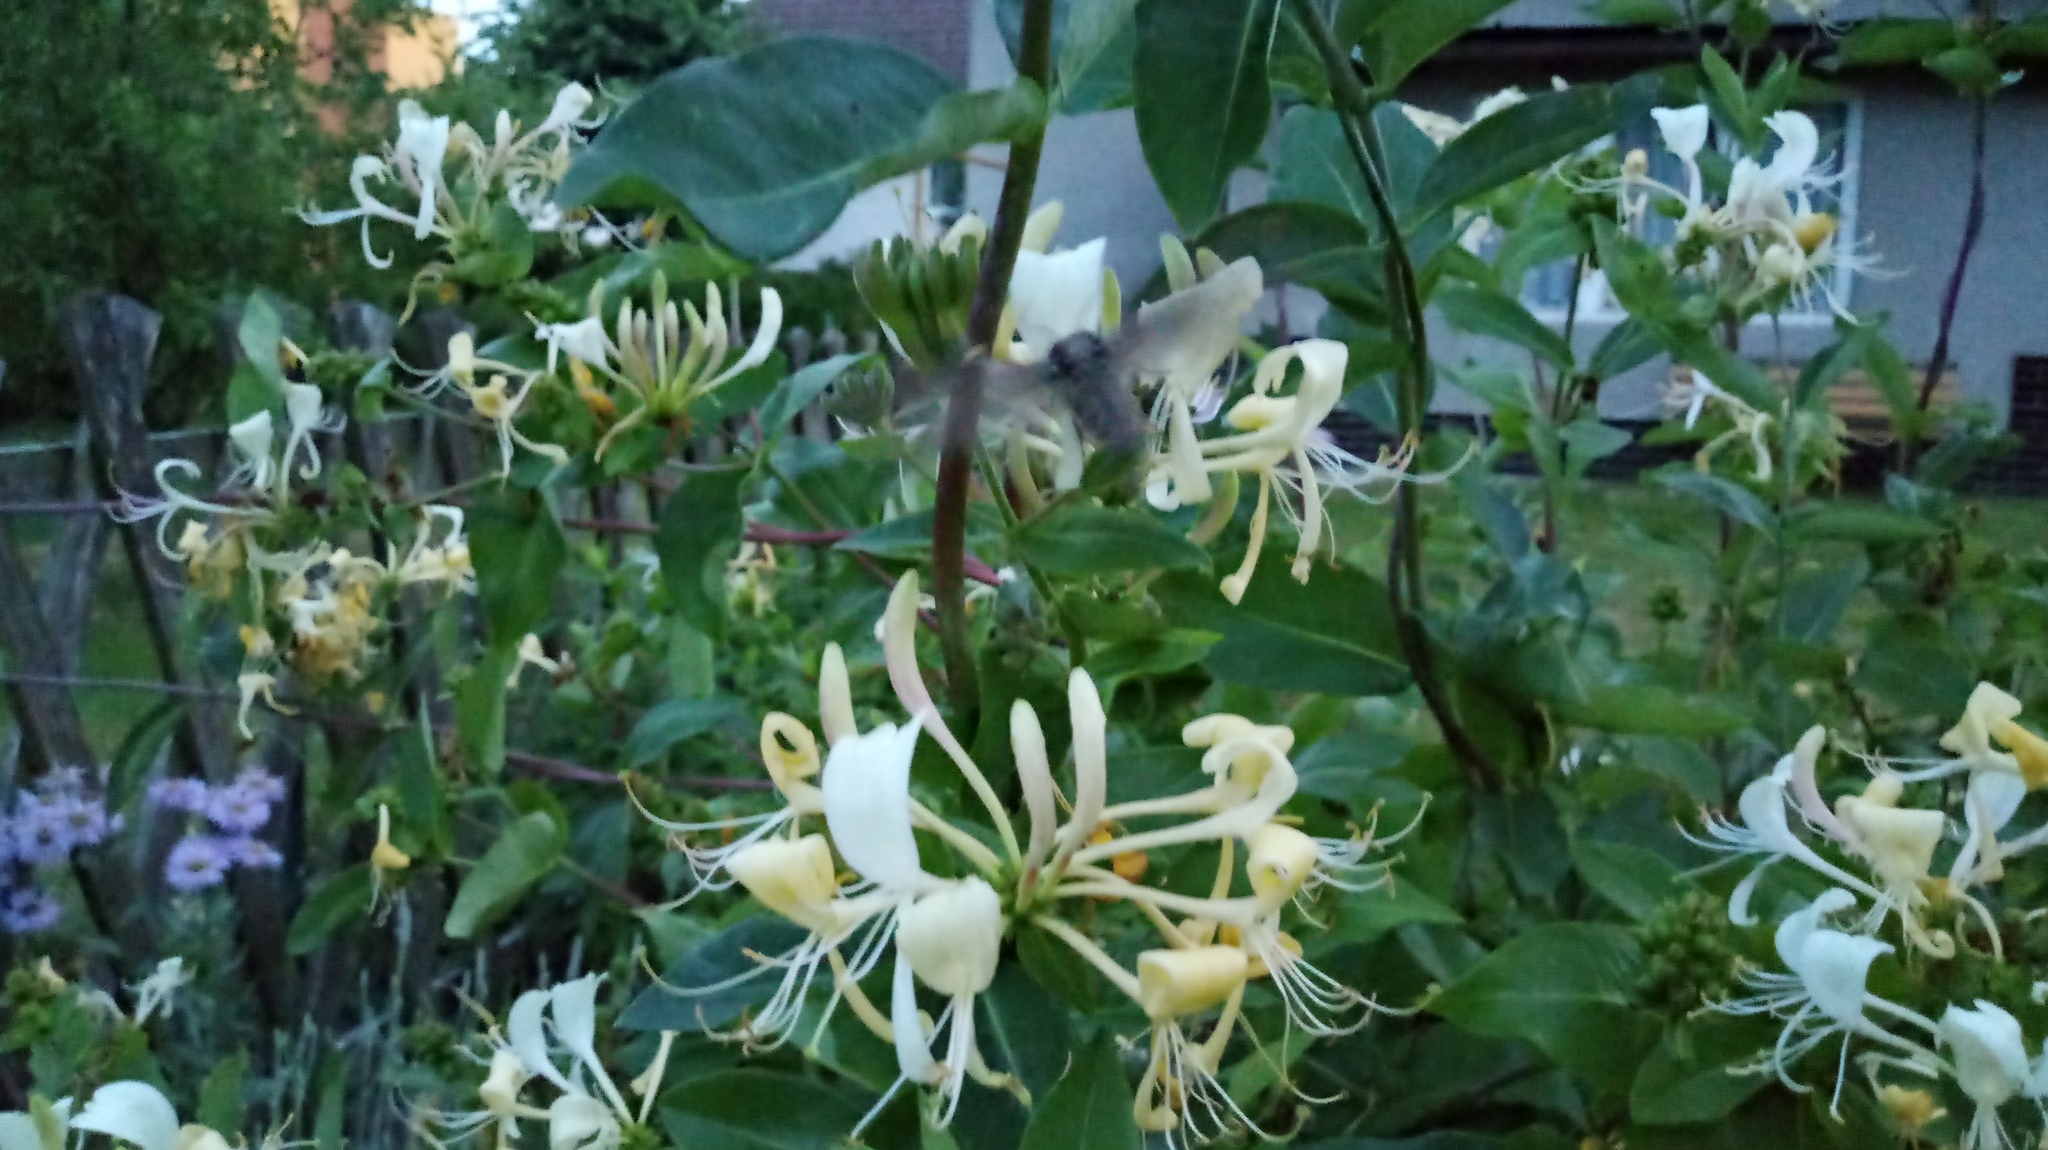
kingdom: Animalia
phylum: Arthropoda
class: Insecta
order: Lepidoptera
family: Sphingidae
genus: Sphinx
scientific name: Sphinx pinastri
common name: Pine hawk-moth
